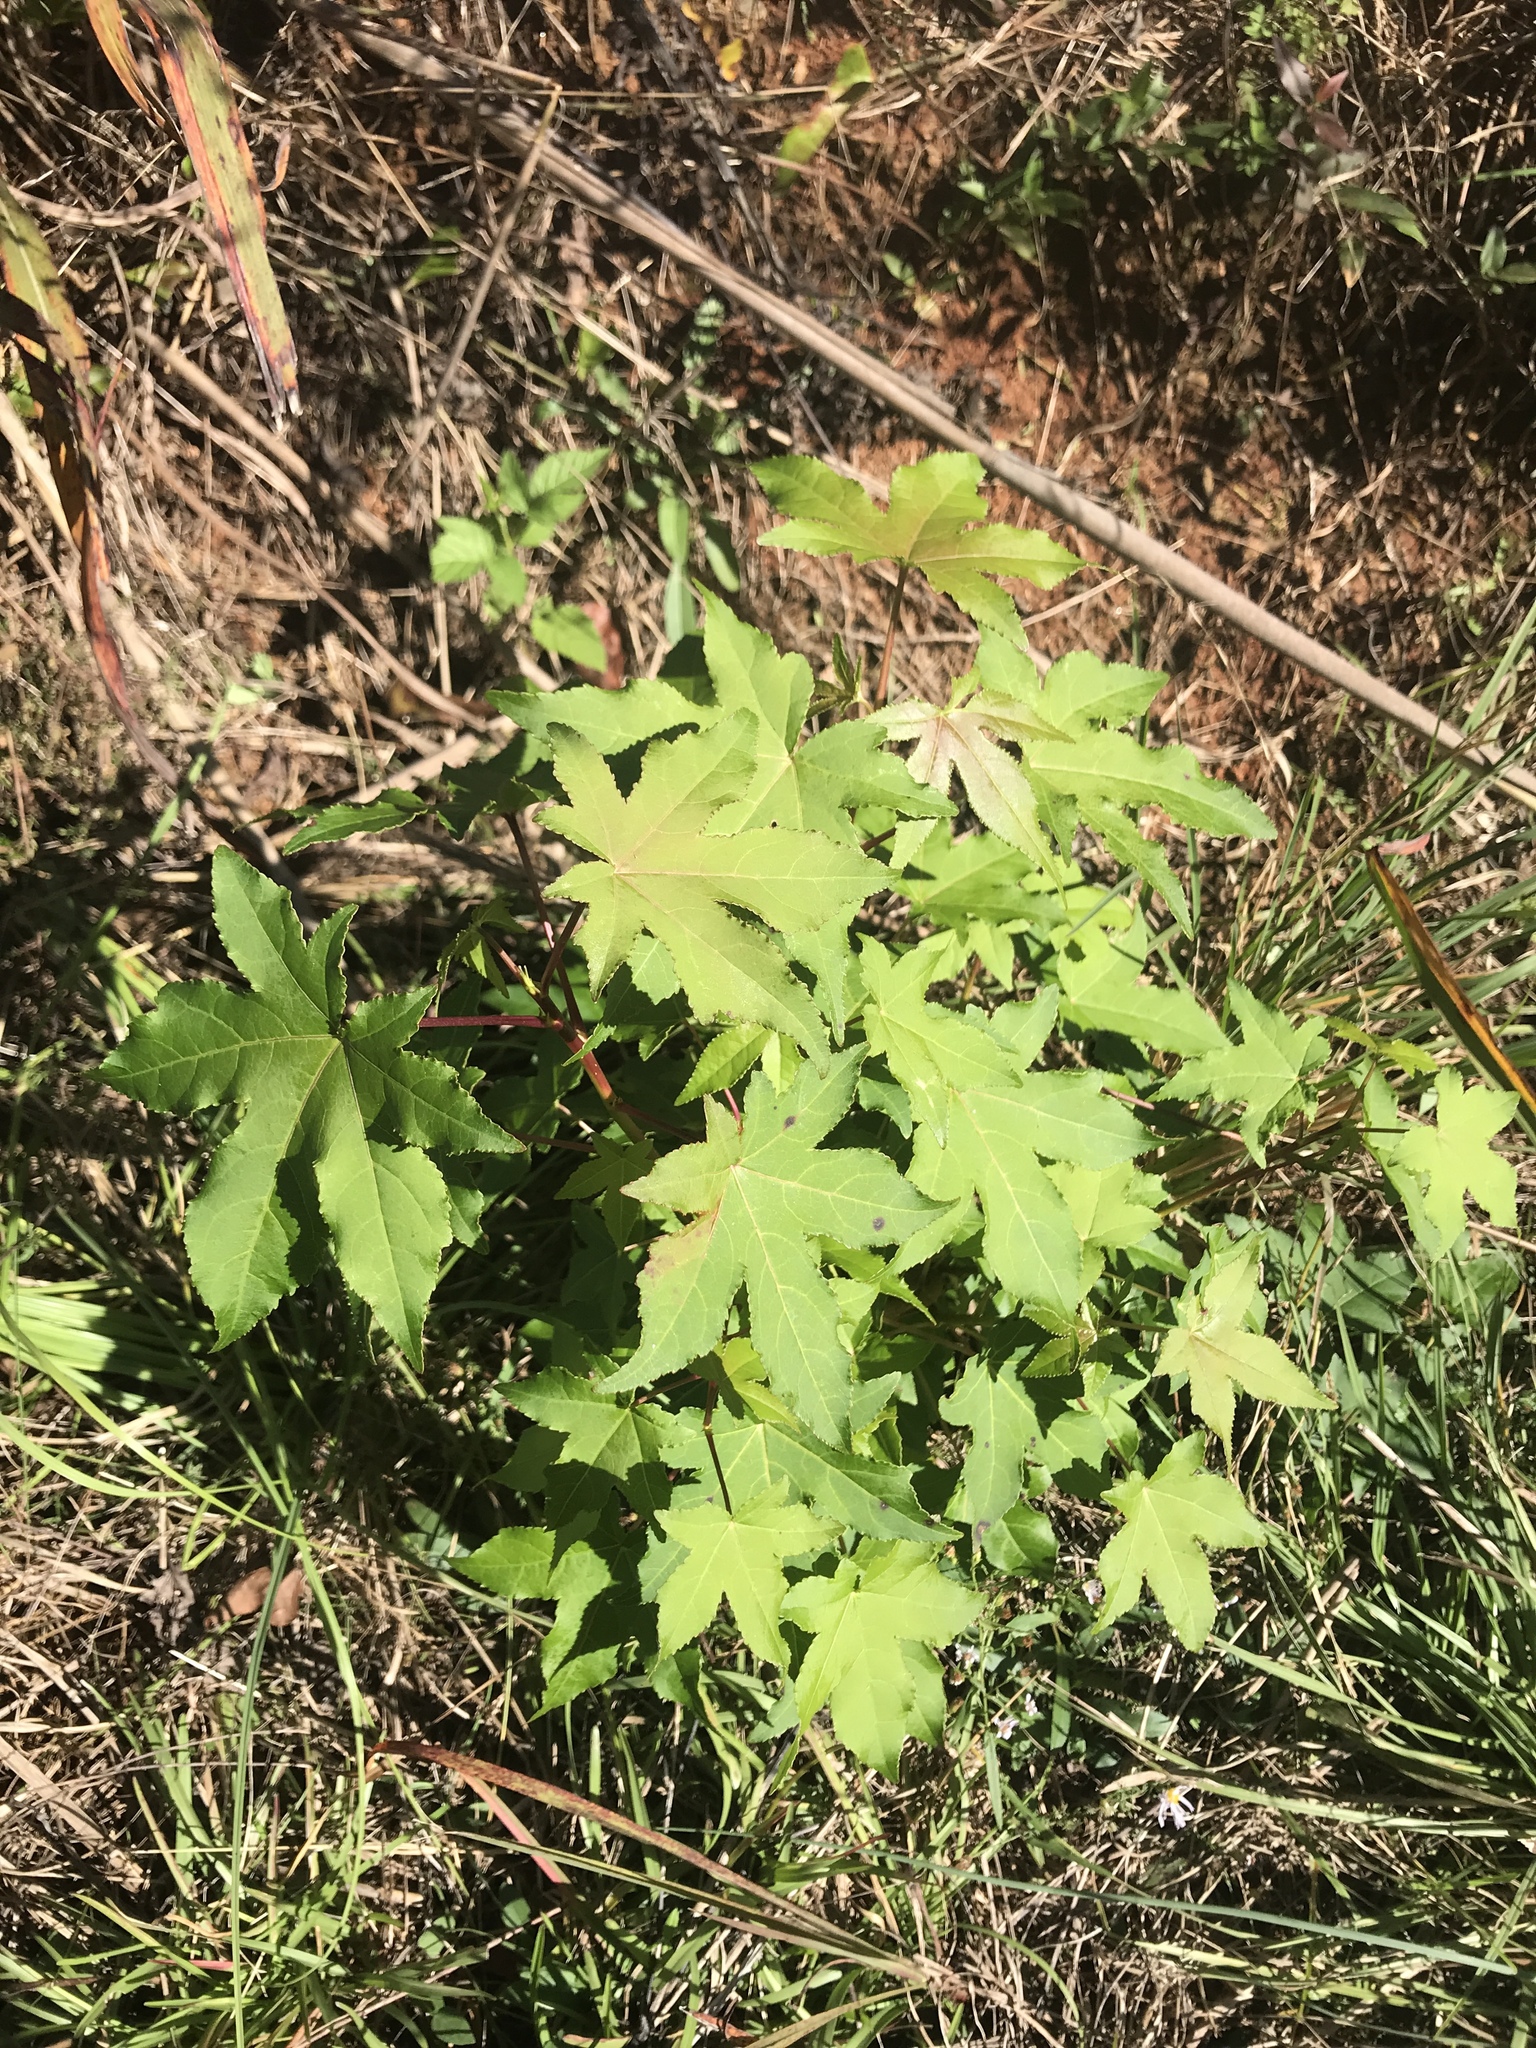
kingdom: Plantae
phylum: Tracheophyta
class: Magnoliopsida
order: Saxifragales
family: Altingiaceae
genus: Liquidambar
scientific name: Liquidambar styraciflua
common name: Sweet gum
